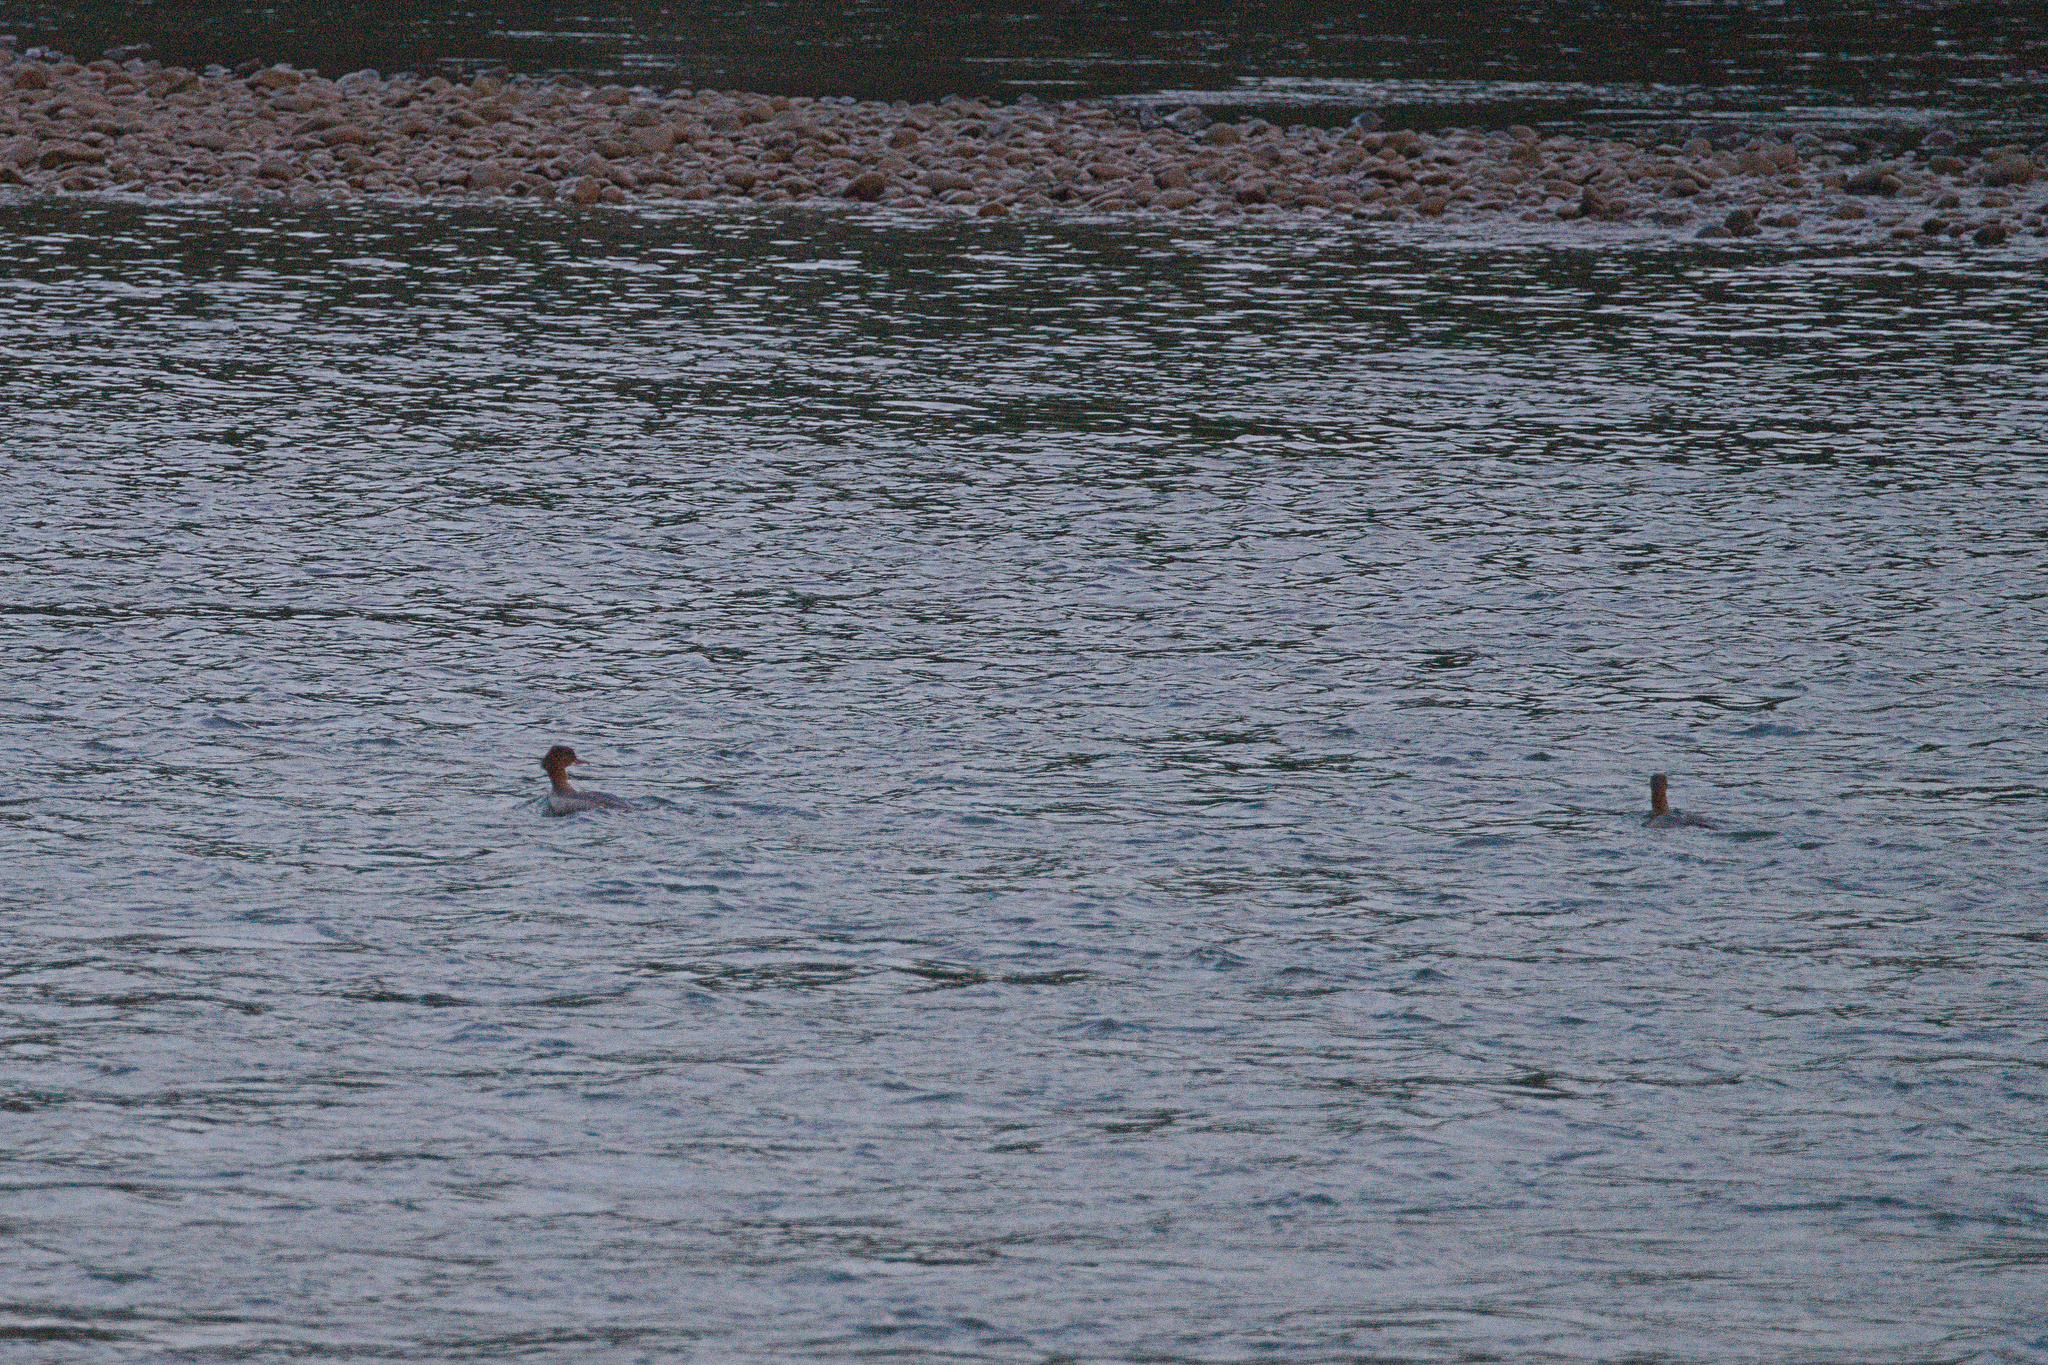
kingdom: Animalia
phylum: Chordata
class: Aves
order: Anseriformes
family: Anatidae
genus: Mergus
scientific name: Mergus merganser
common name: Common merganser
